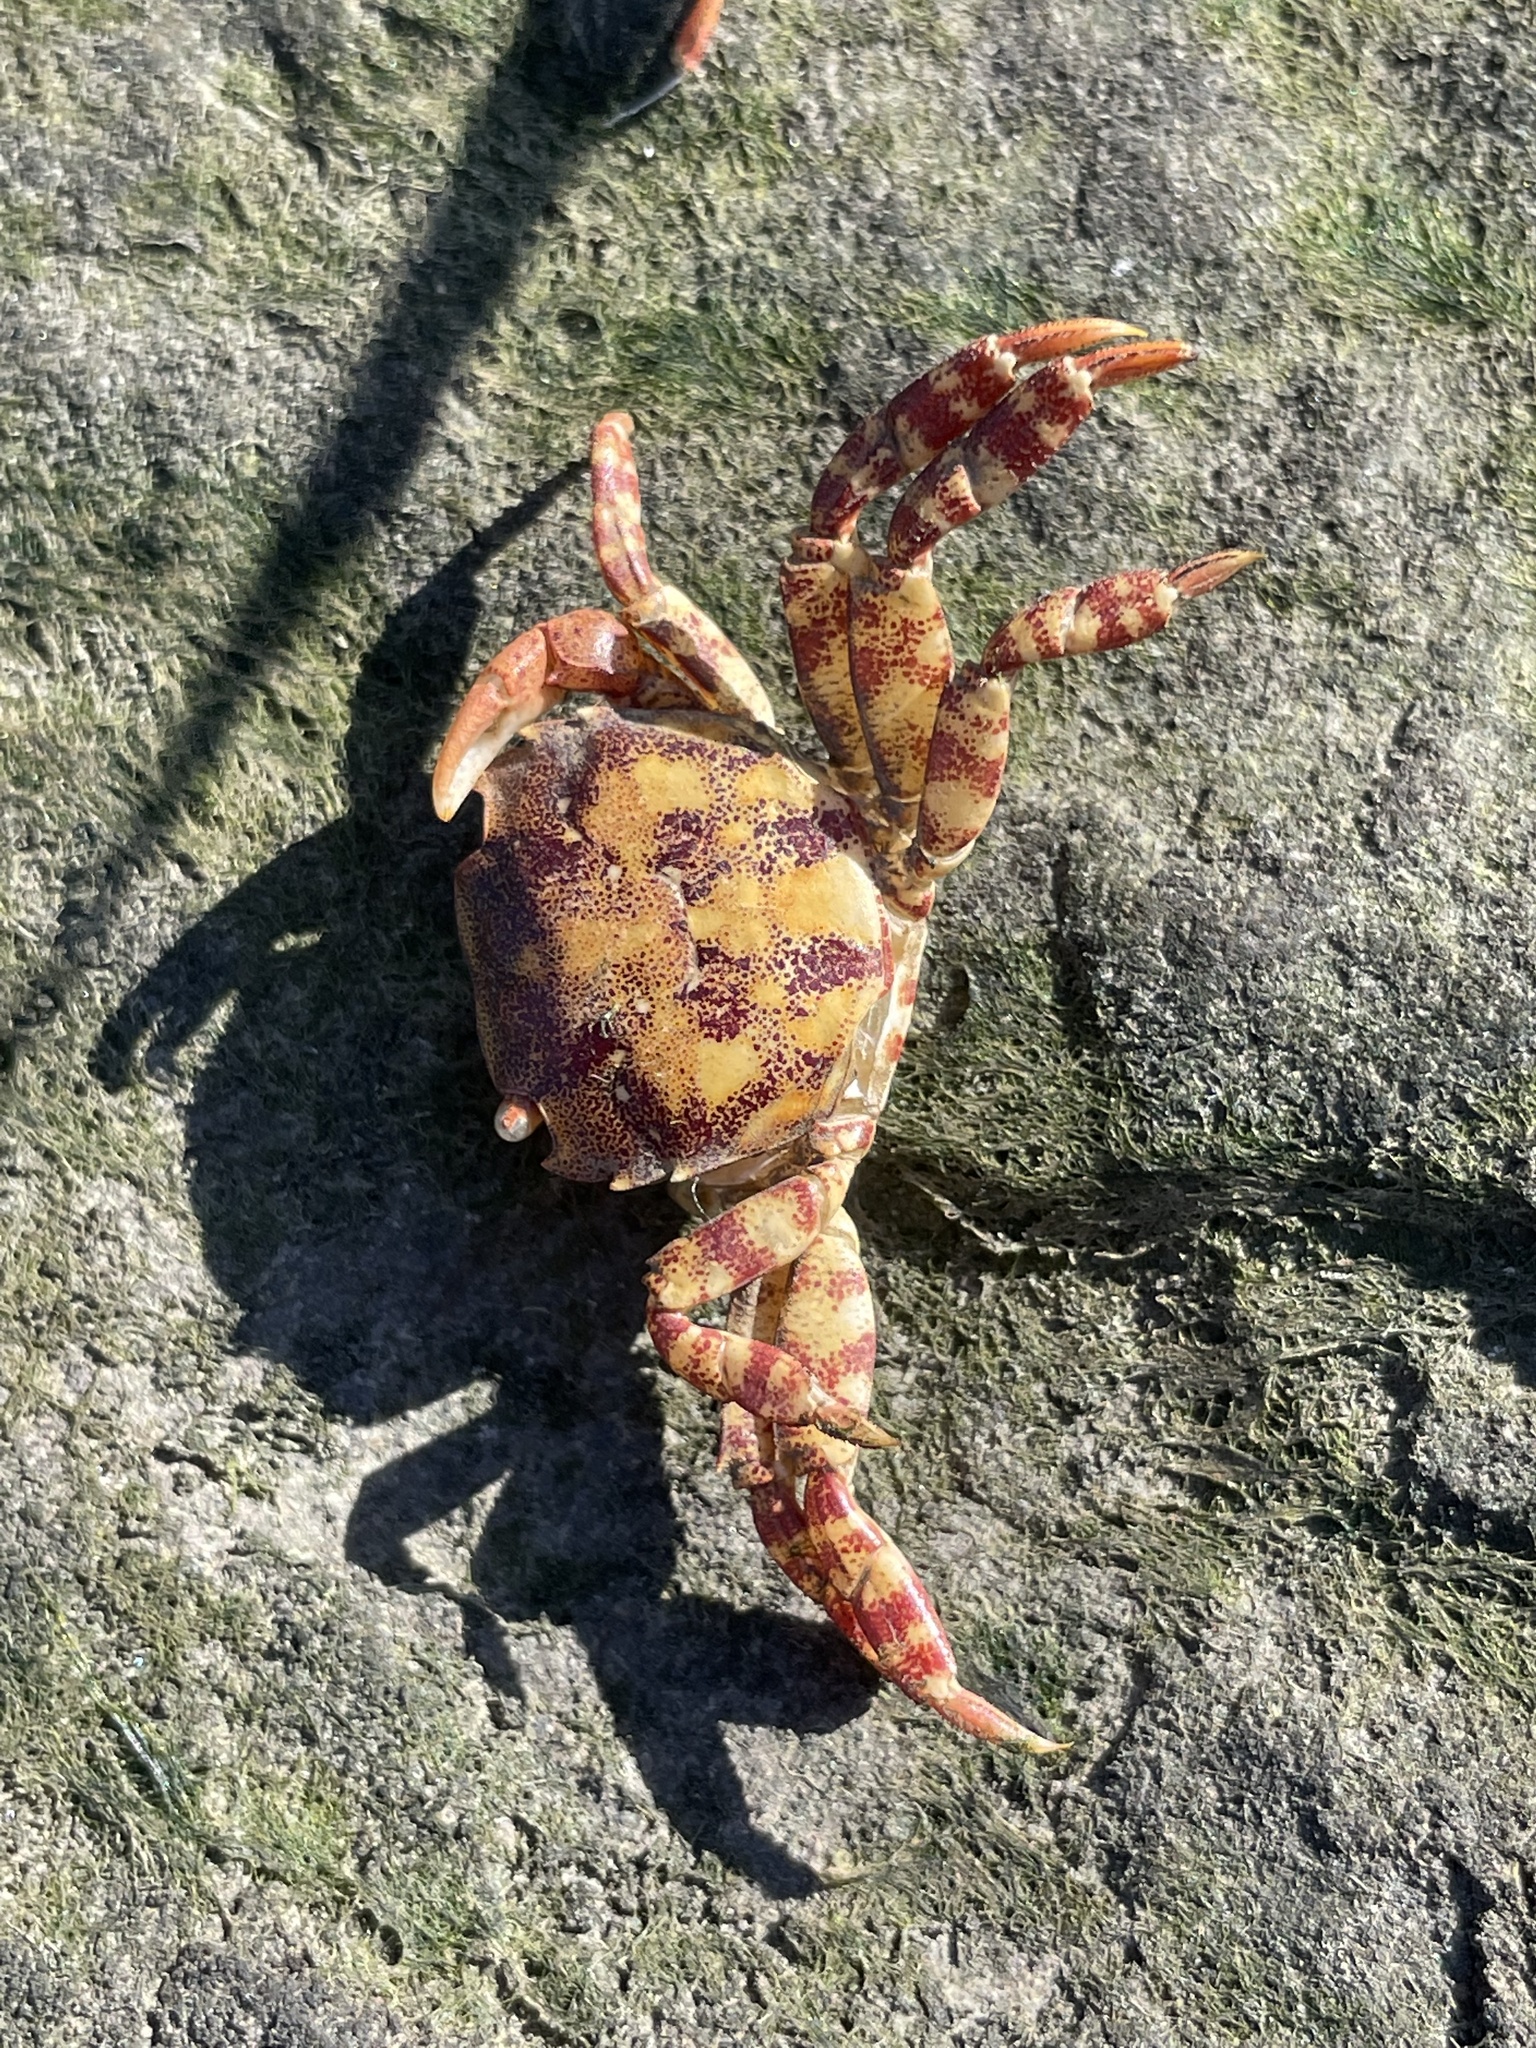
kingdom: Animalia
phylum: Arthropoda
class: Malacostraca
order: Decapoda
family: Varunidae
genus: Hemigrapsus
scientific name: Hemigrapsus sanguineus
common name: Asian shore crab
